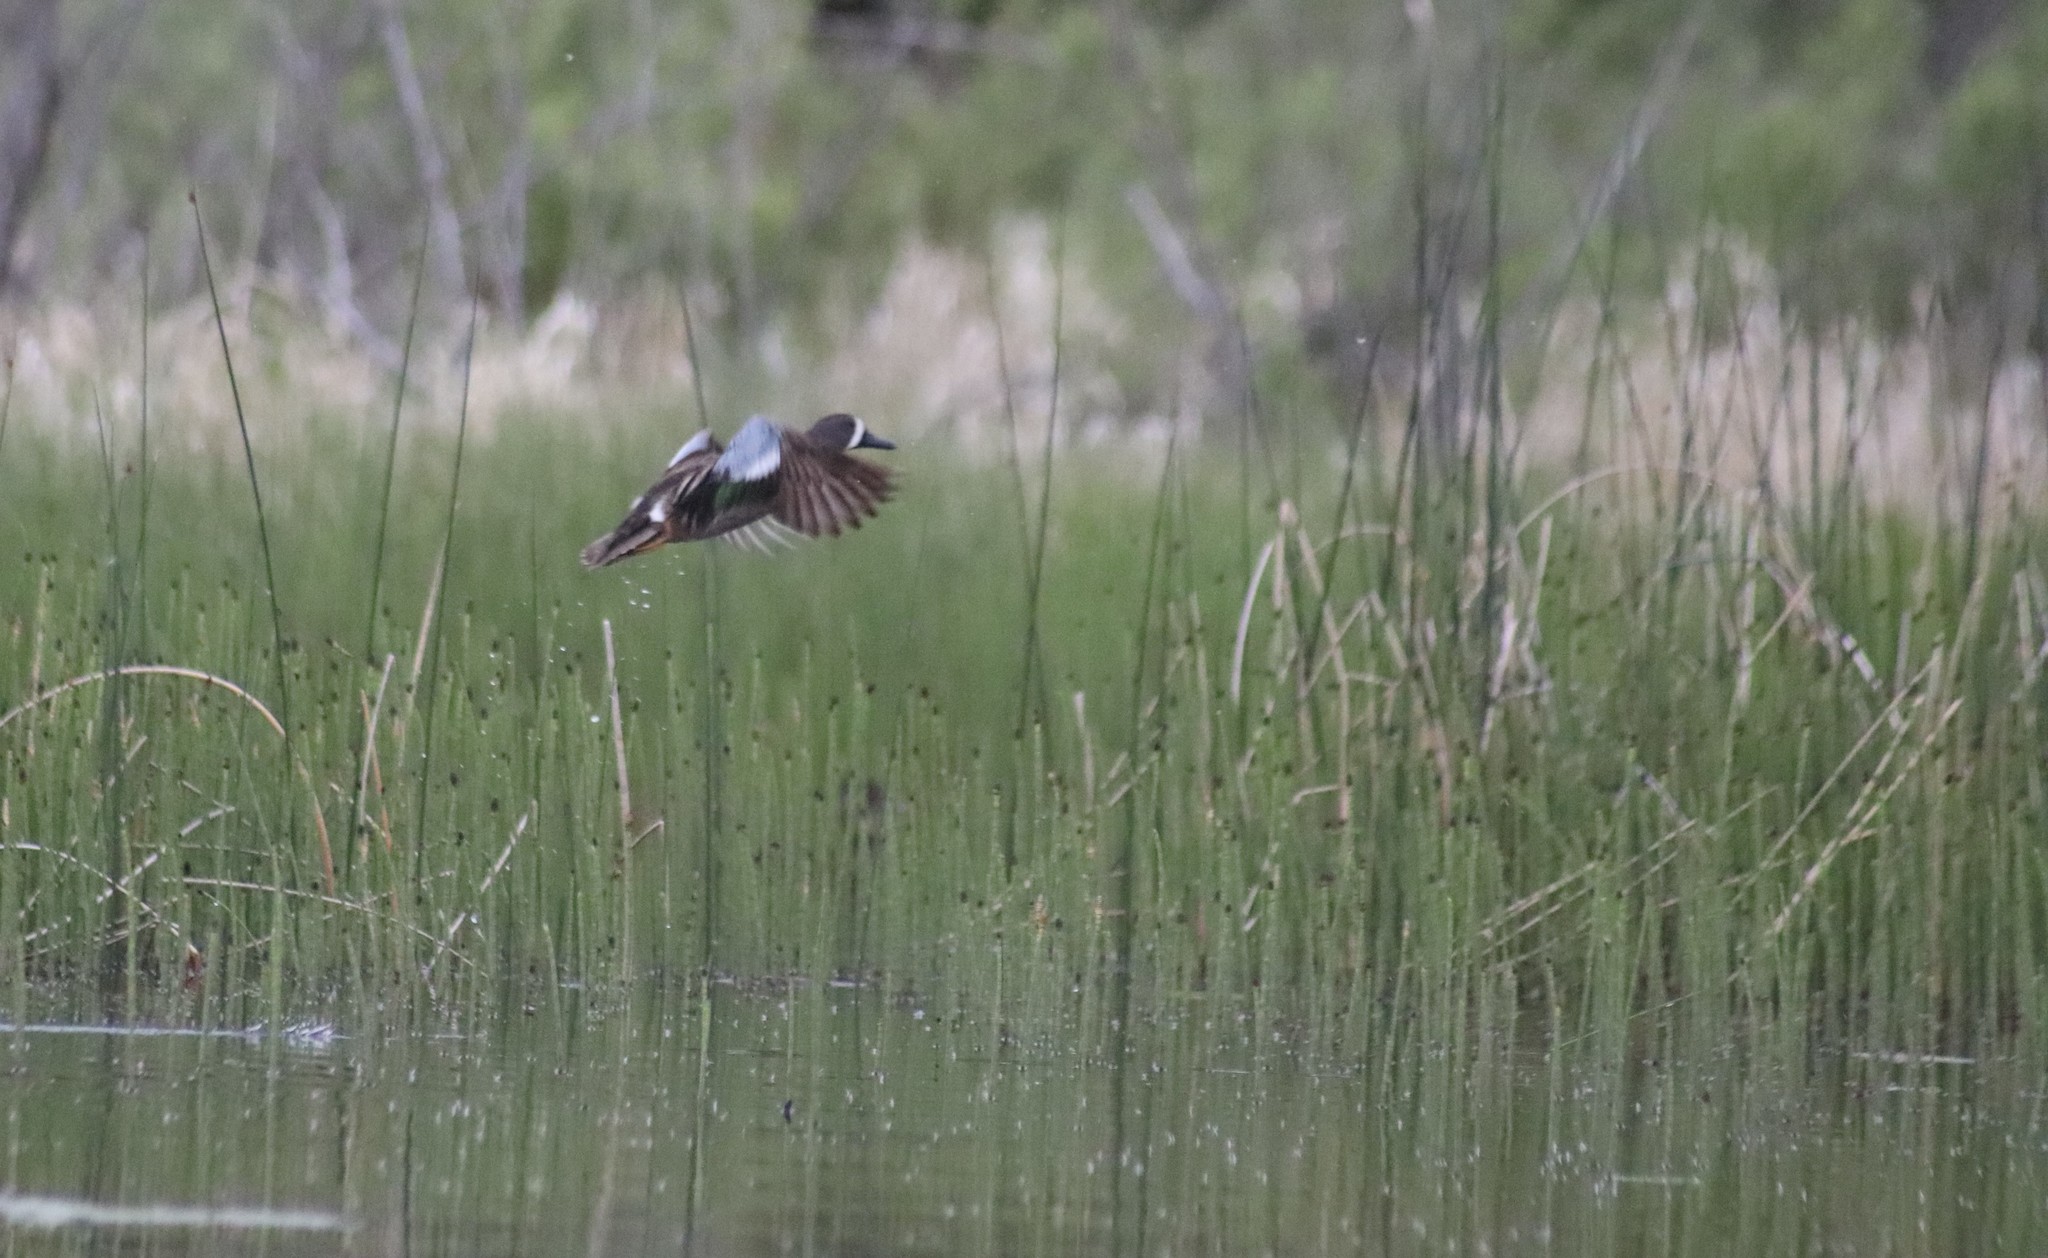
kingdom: Animalia
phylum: Chordata
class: Aves
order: Anseriformes
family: Anatidae
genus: Spatula
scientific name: Spatula discors
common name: Blue-winged teal
